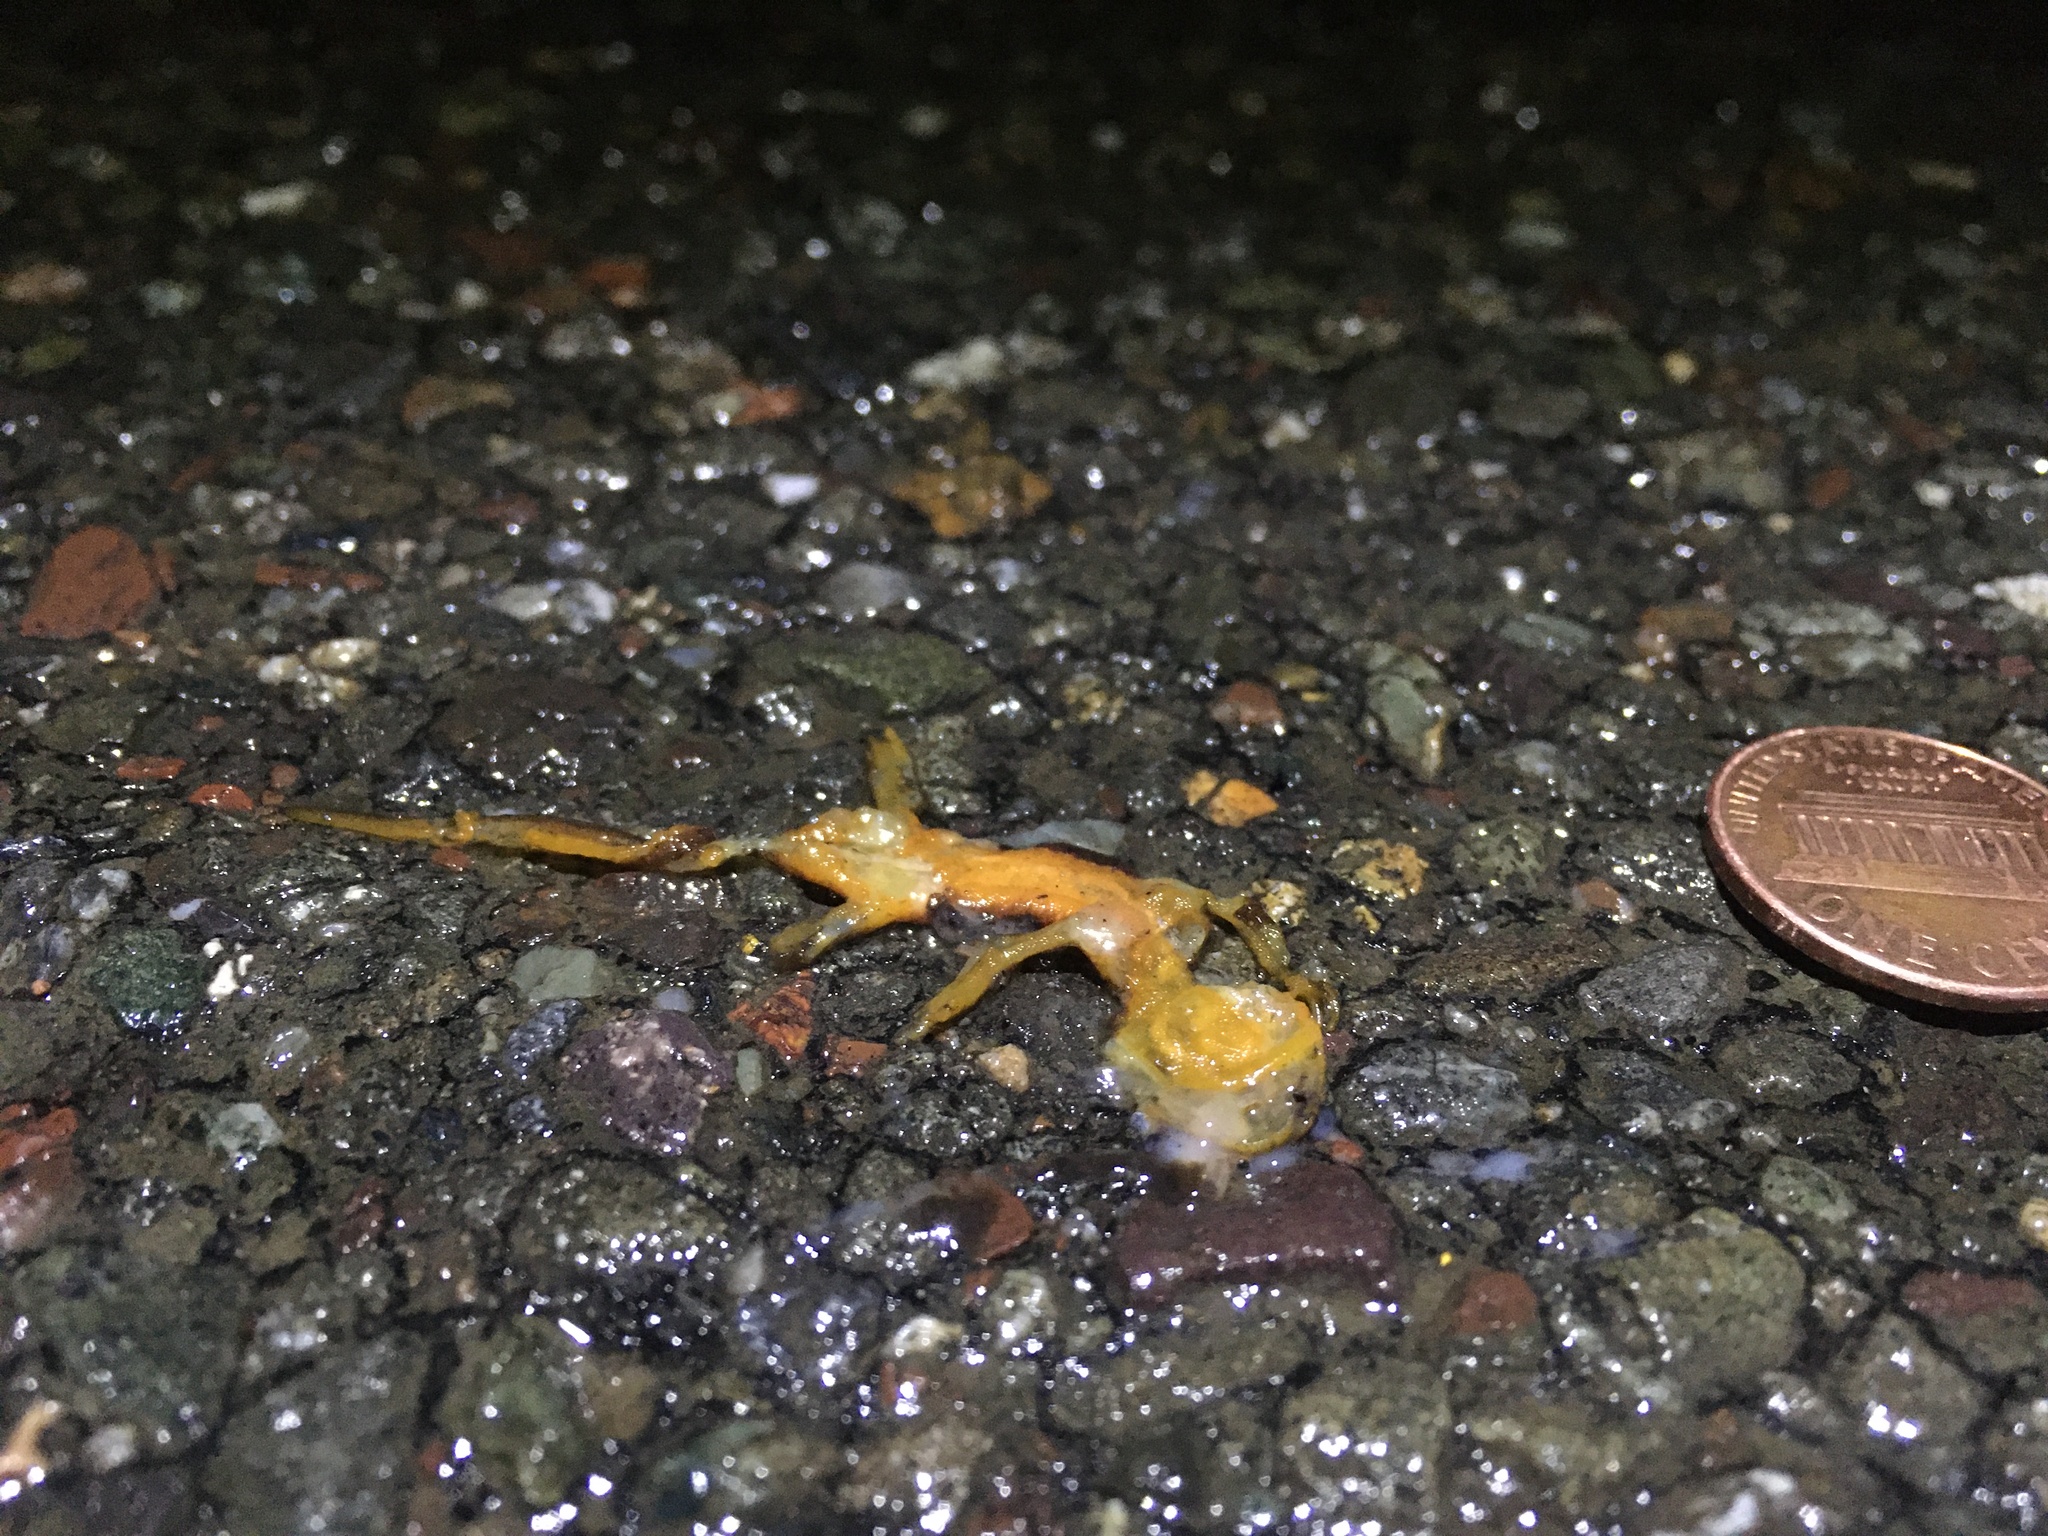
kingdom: Animalia
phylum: Chordata
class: Amphibia
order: Caudata
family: Salamandridae
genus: Taricha
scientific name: Taricha
